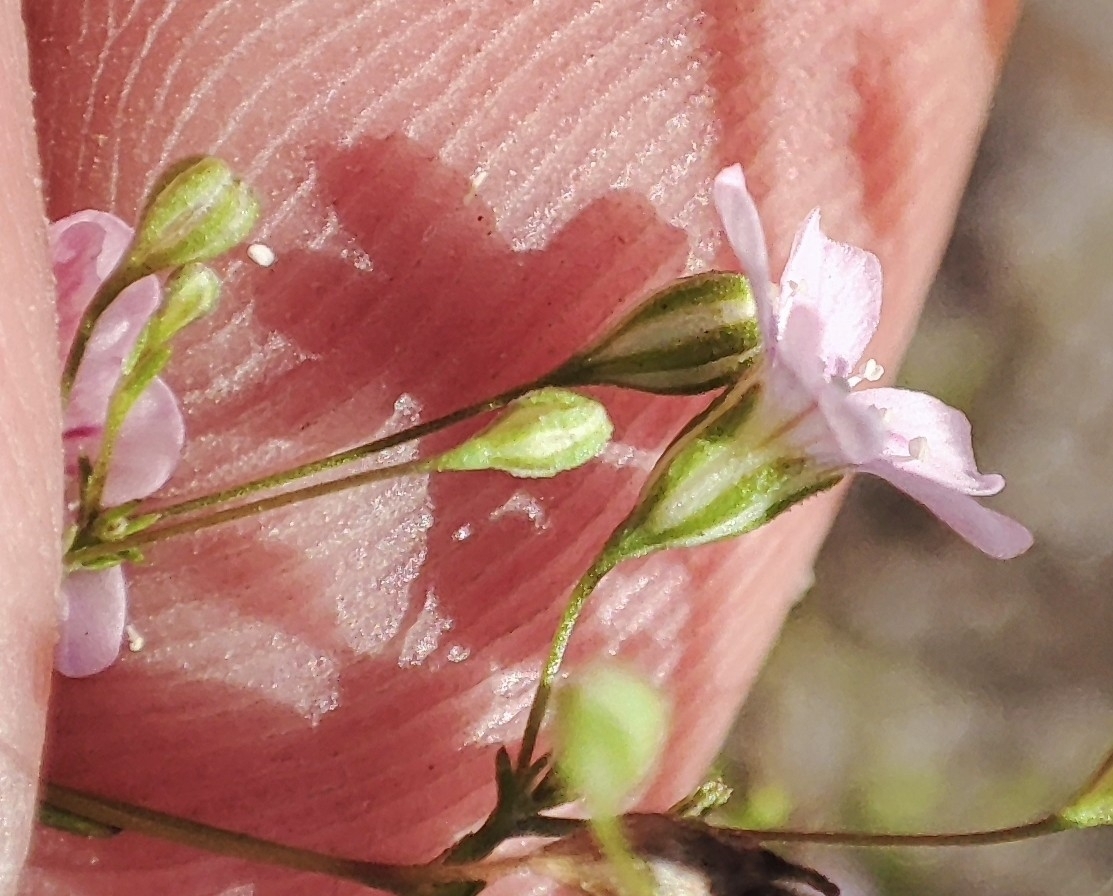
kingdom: Plantae
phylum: Tracheophyta
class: Magnoliopsida
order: Caryophyllales
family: Caryophyllaceae
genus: Psammophiliella
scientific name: Psammophiliella muralis
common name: Cushion baby's-breath
